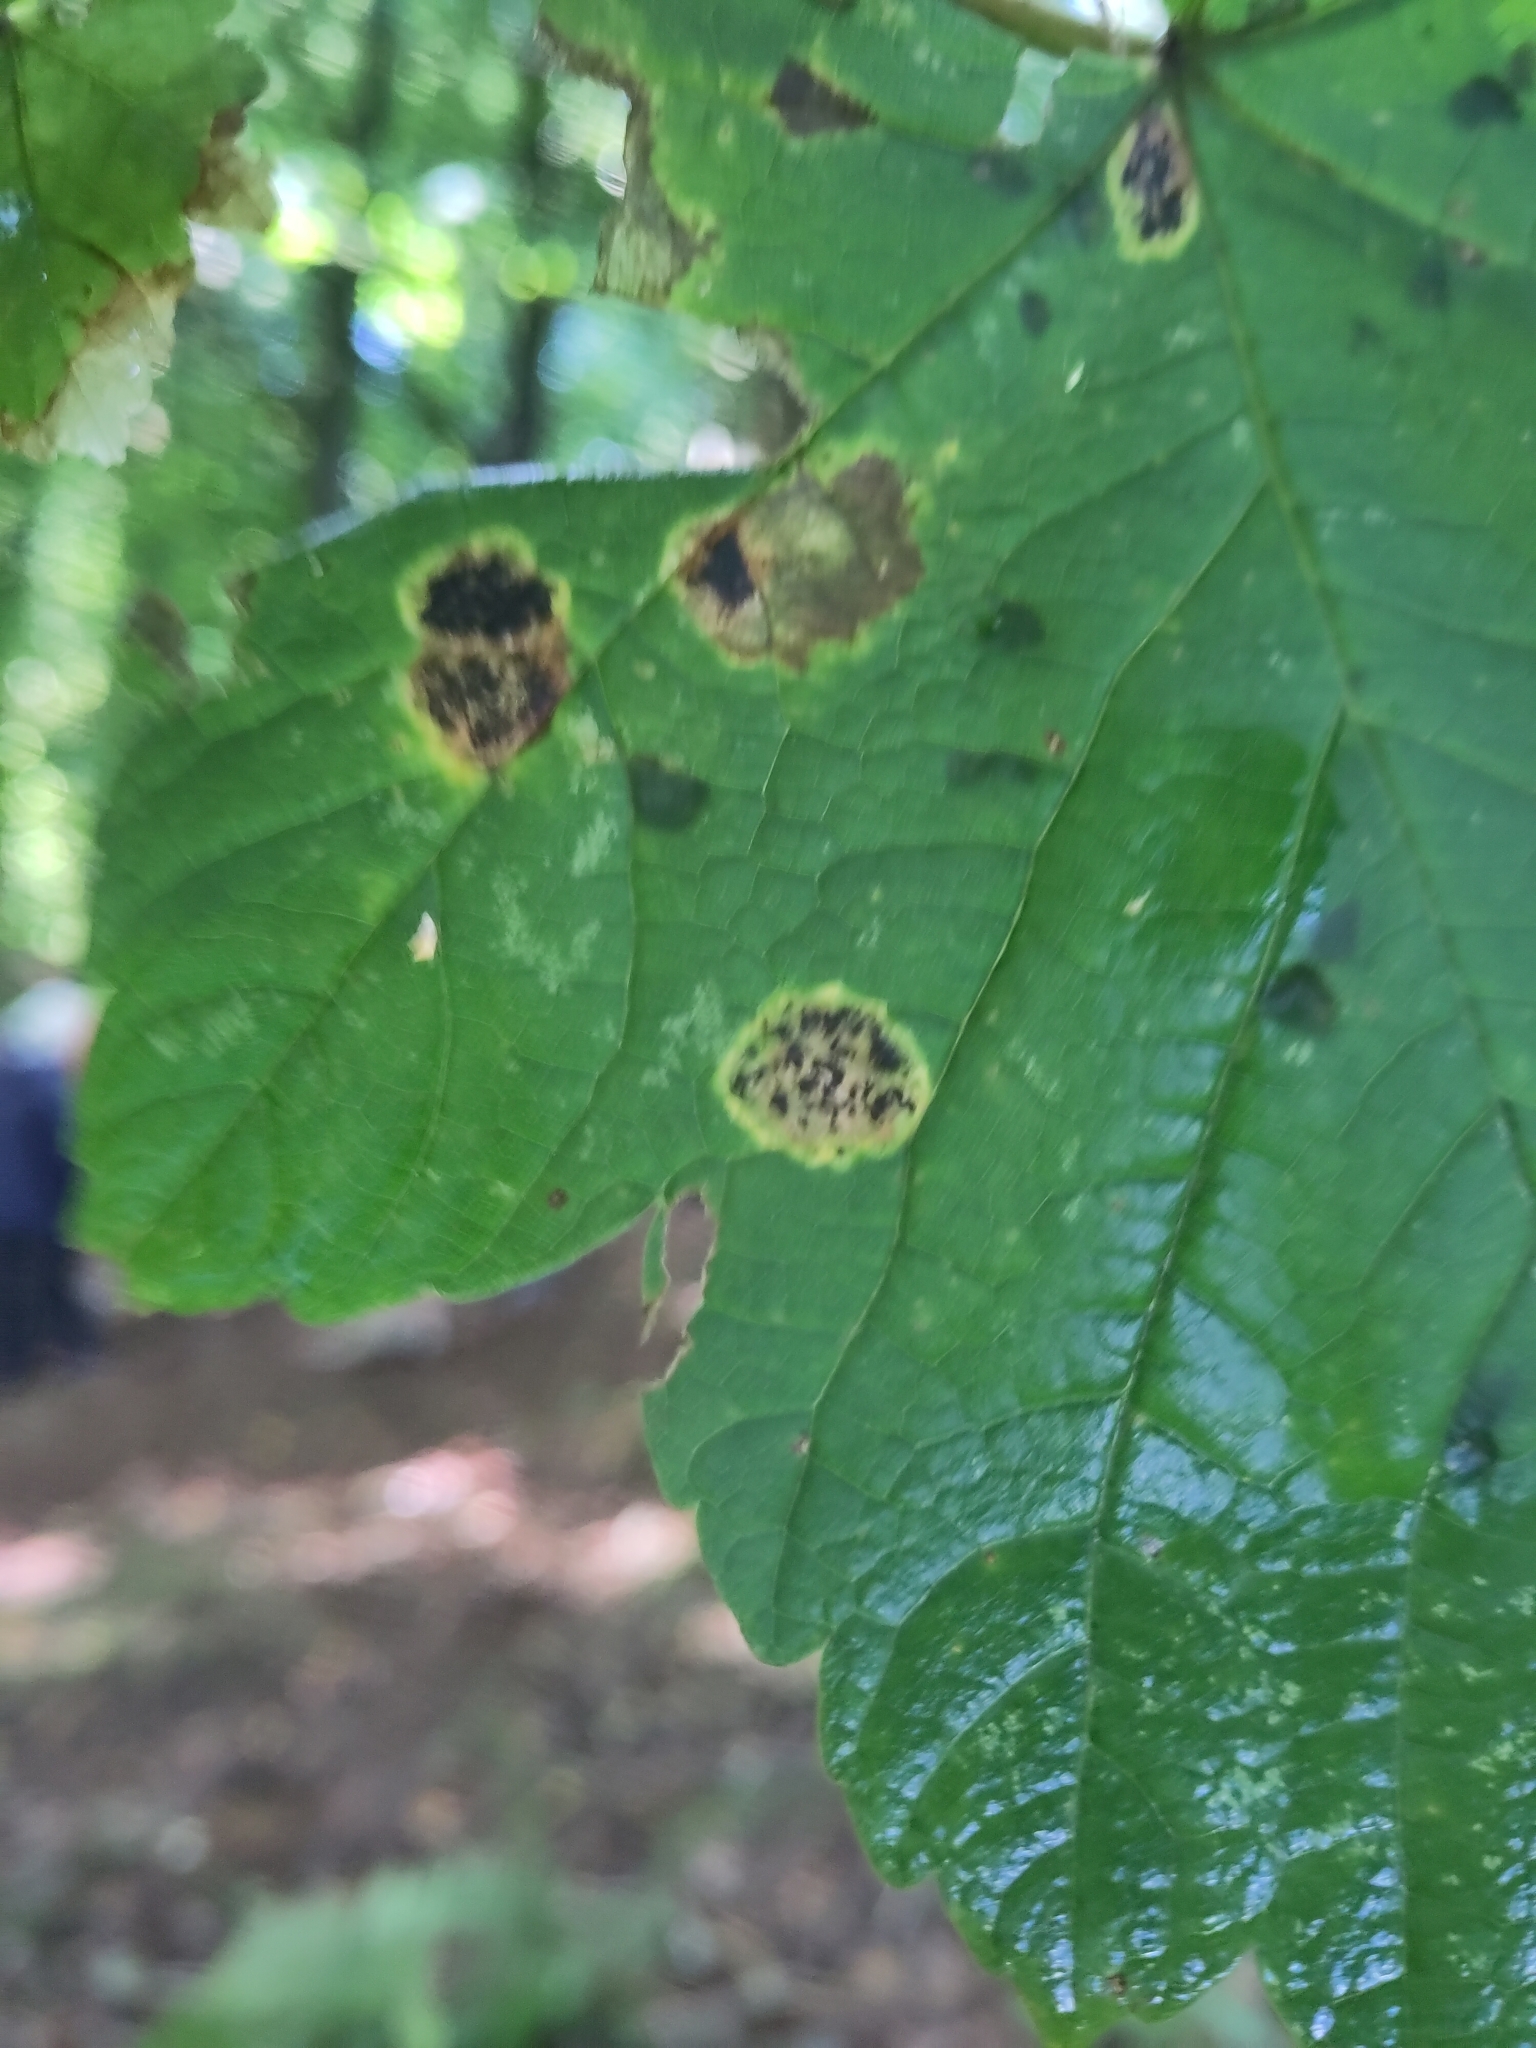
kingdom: Fungi
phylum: Ascomycota
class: Leotiomycetes
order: Rhytismatales
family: Rhytismataceae
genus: Rhytisma
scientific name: Rhytisma acerinum
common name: European tar spot
